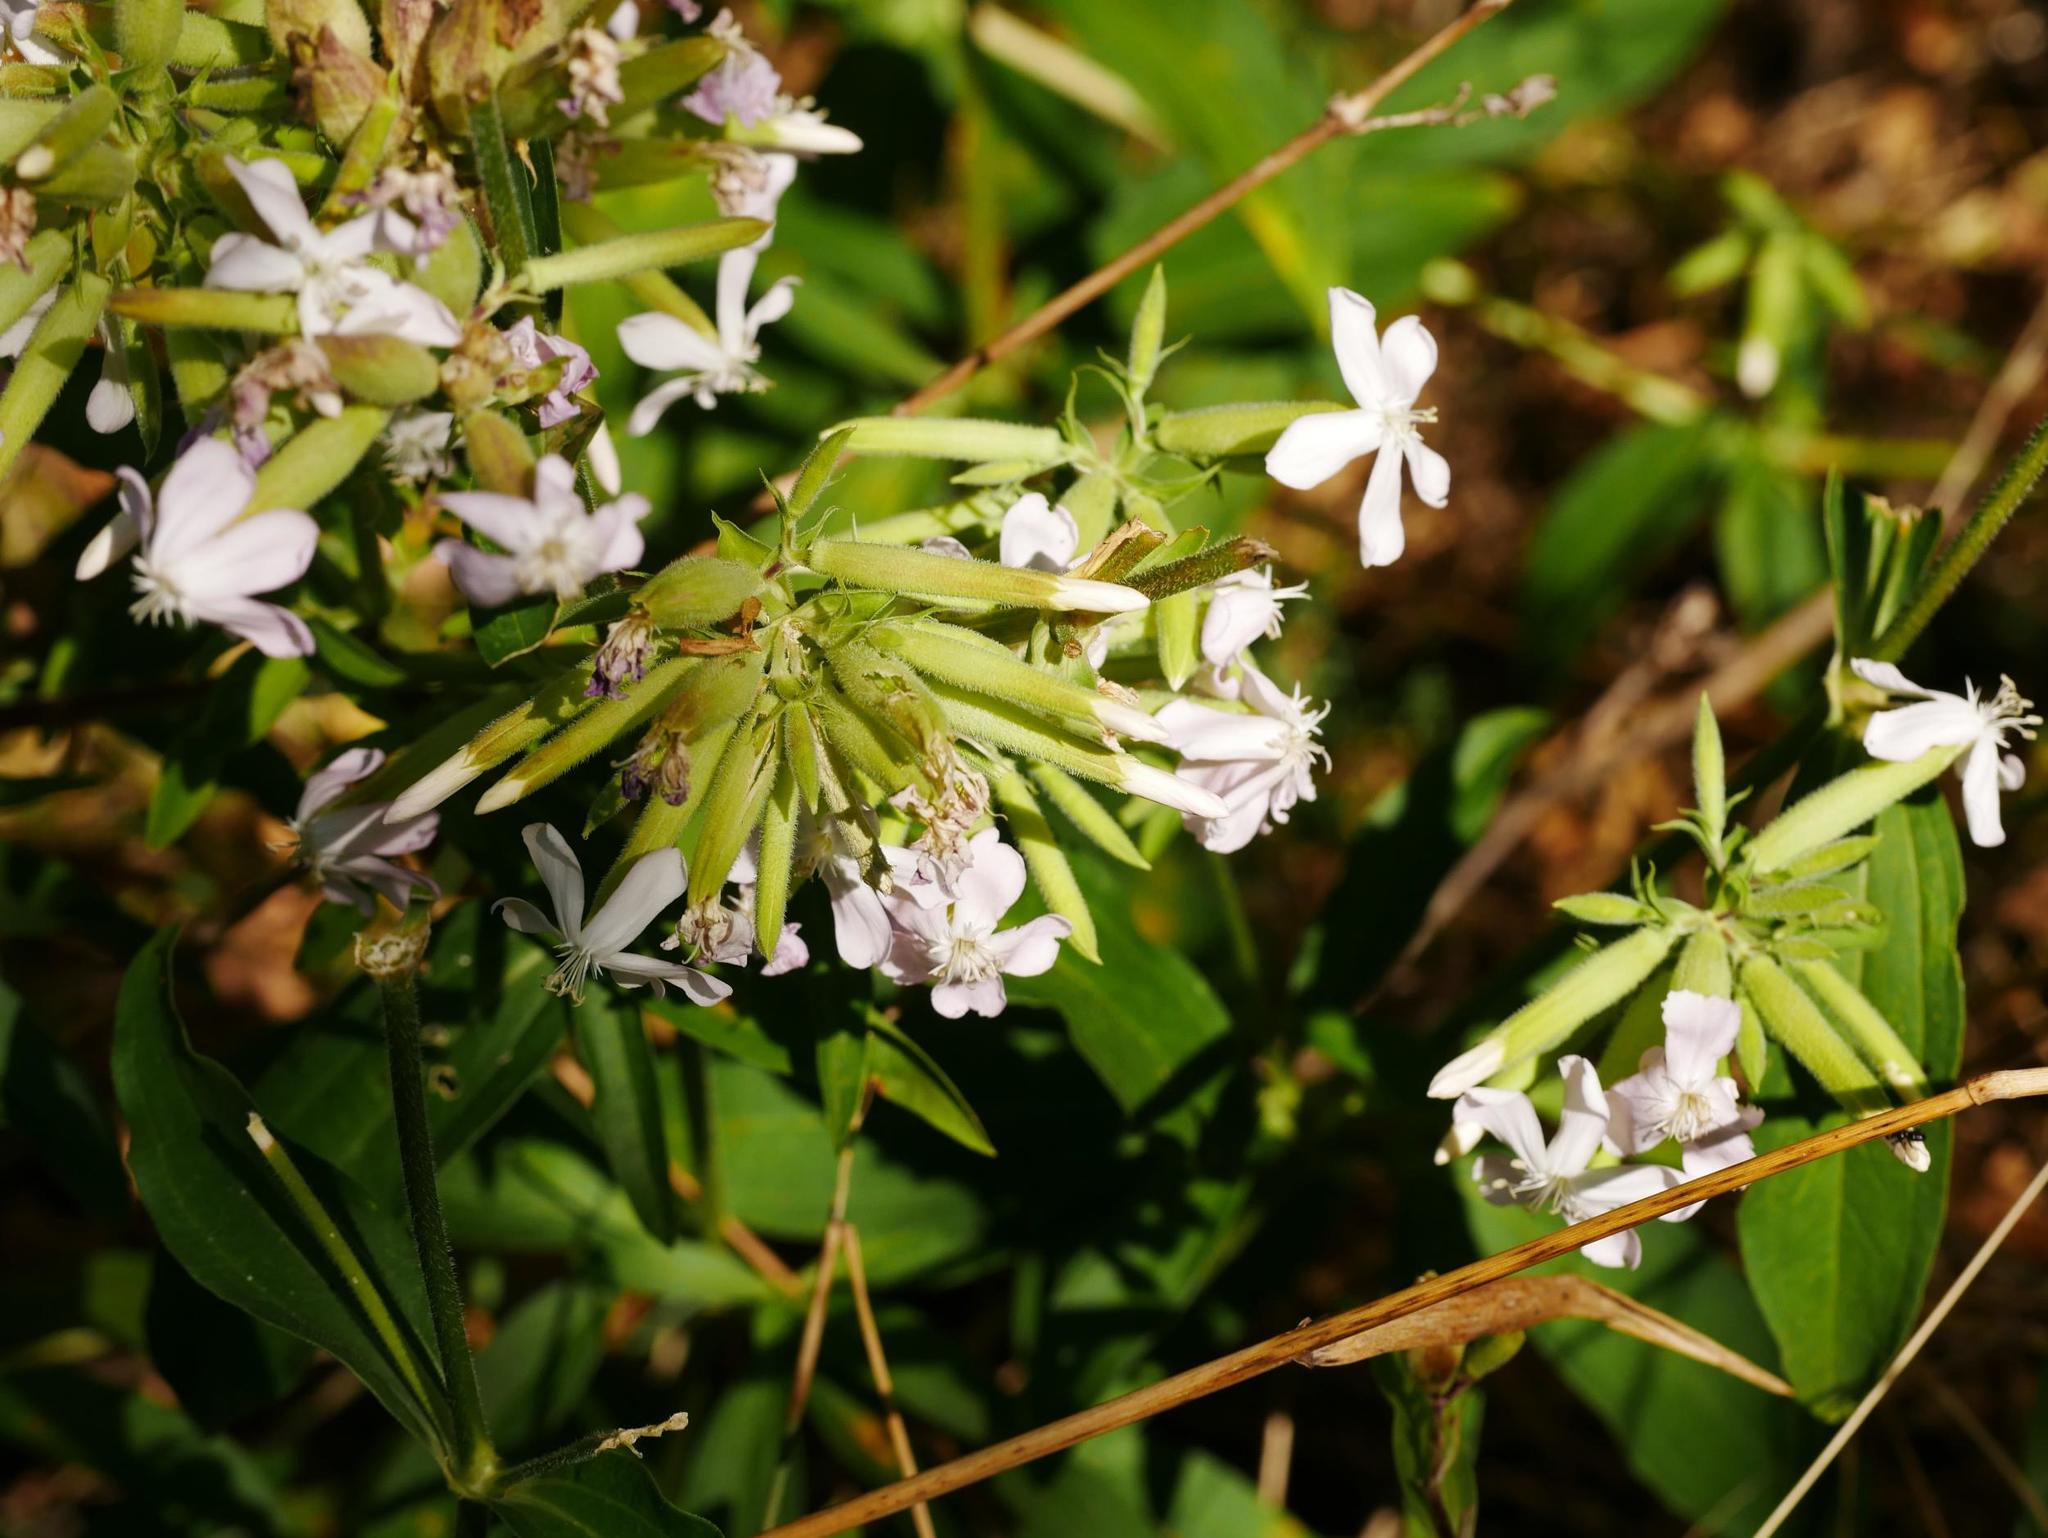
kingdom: Plantae
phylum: Tracheophyta
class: Magnoliopsida
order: Caryophyllales
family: Caryophyllaceae
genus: Saponaria
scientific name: Saponaria officinalis
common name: Soapwort
